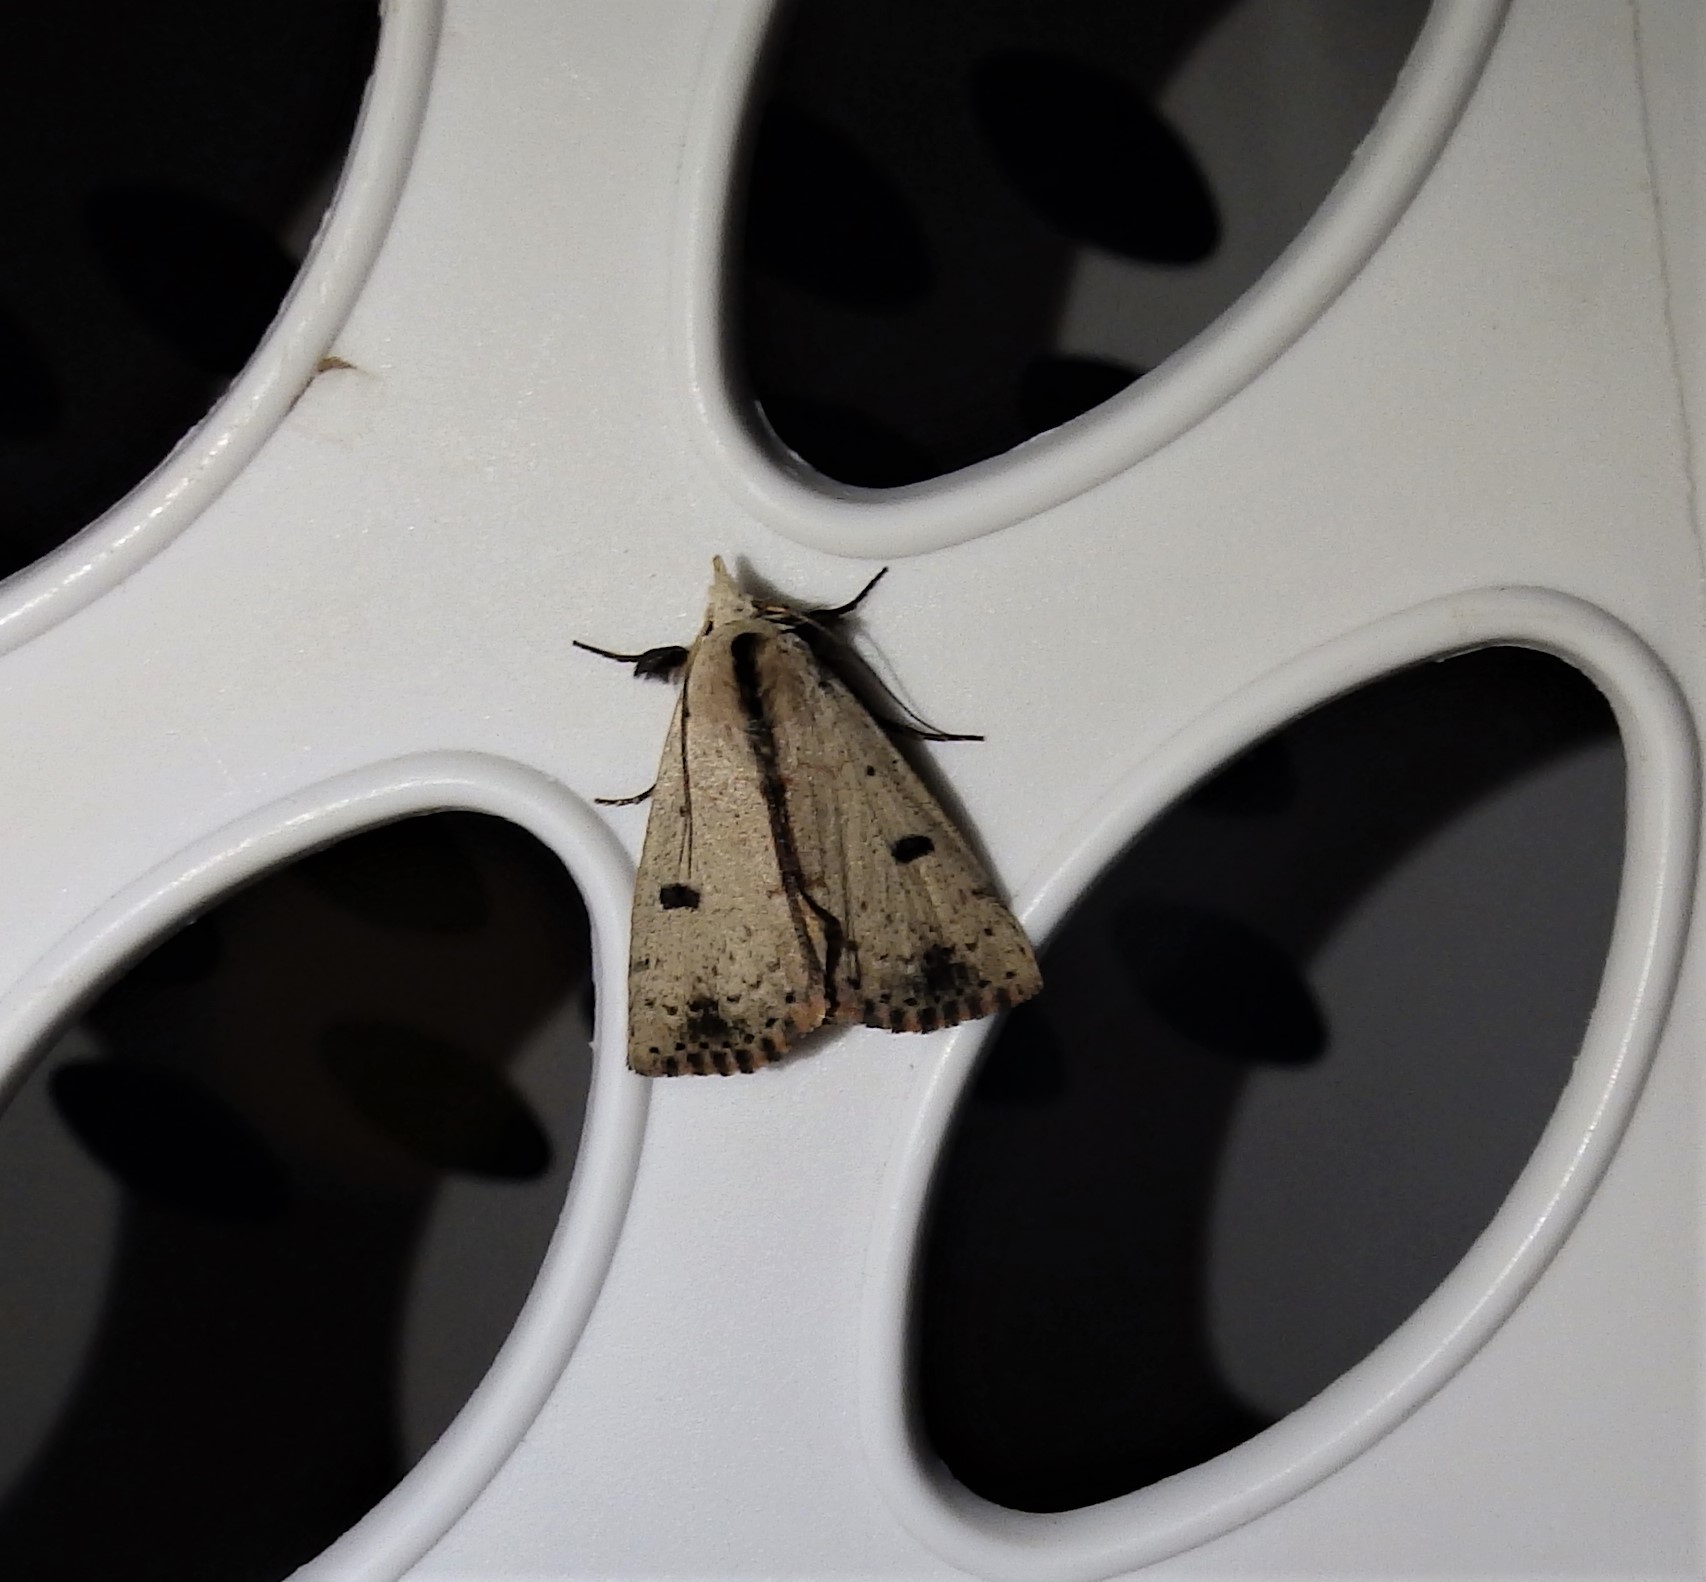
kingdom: Animalia
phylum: Arthropoda
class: Insecta
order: Lepidoptera
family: Erebidae
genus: Scolecocampa
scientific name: Scolecocampa liburna
